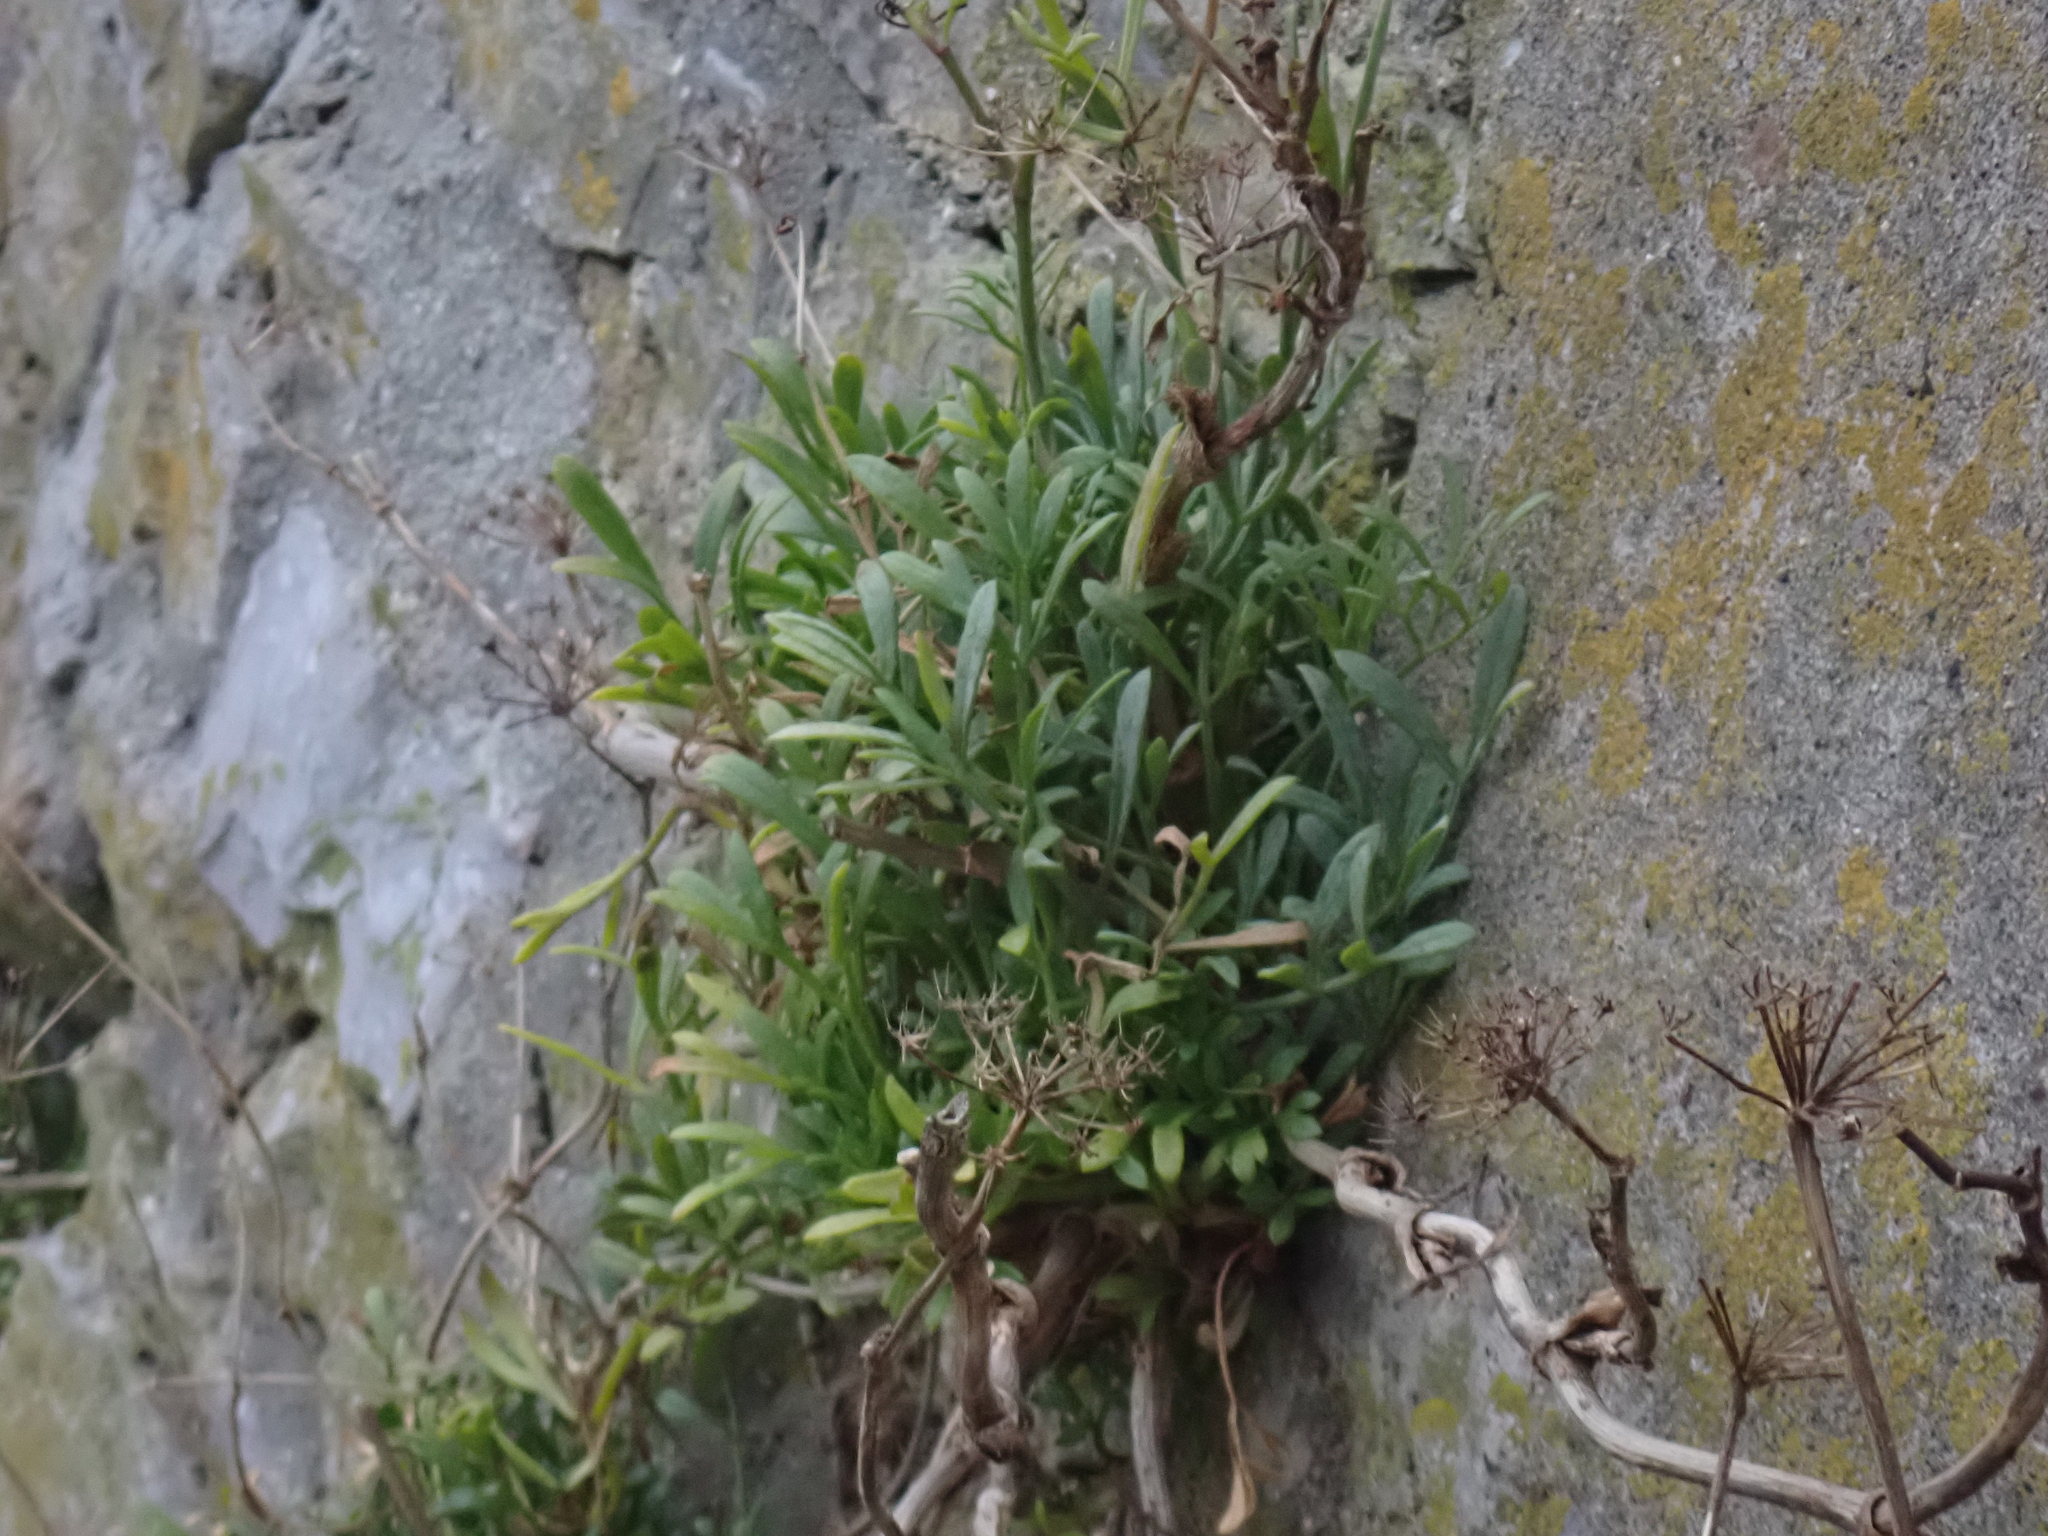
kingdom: Plantae
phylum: Tracheophyta
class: Magnoliopsida
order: Apiales
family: Apiaceae
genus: Crithmum
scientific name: Crithmum maritimum
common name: Rock samphire
